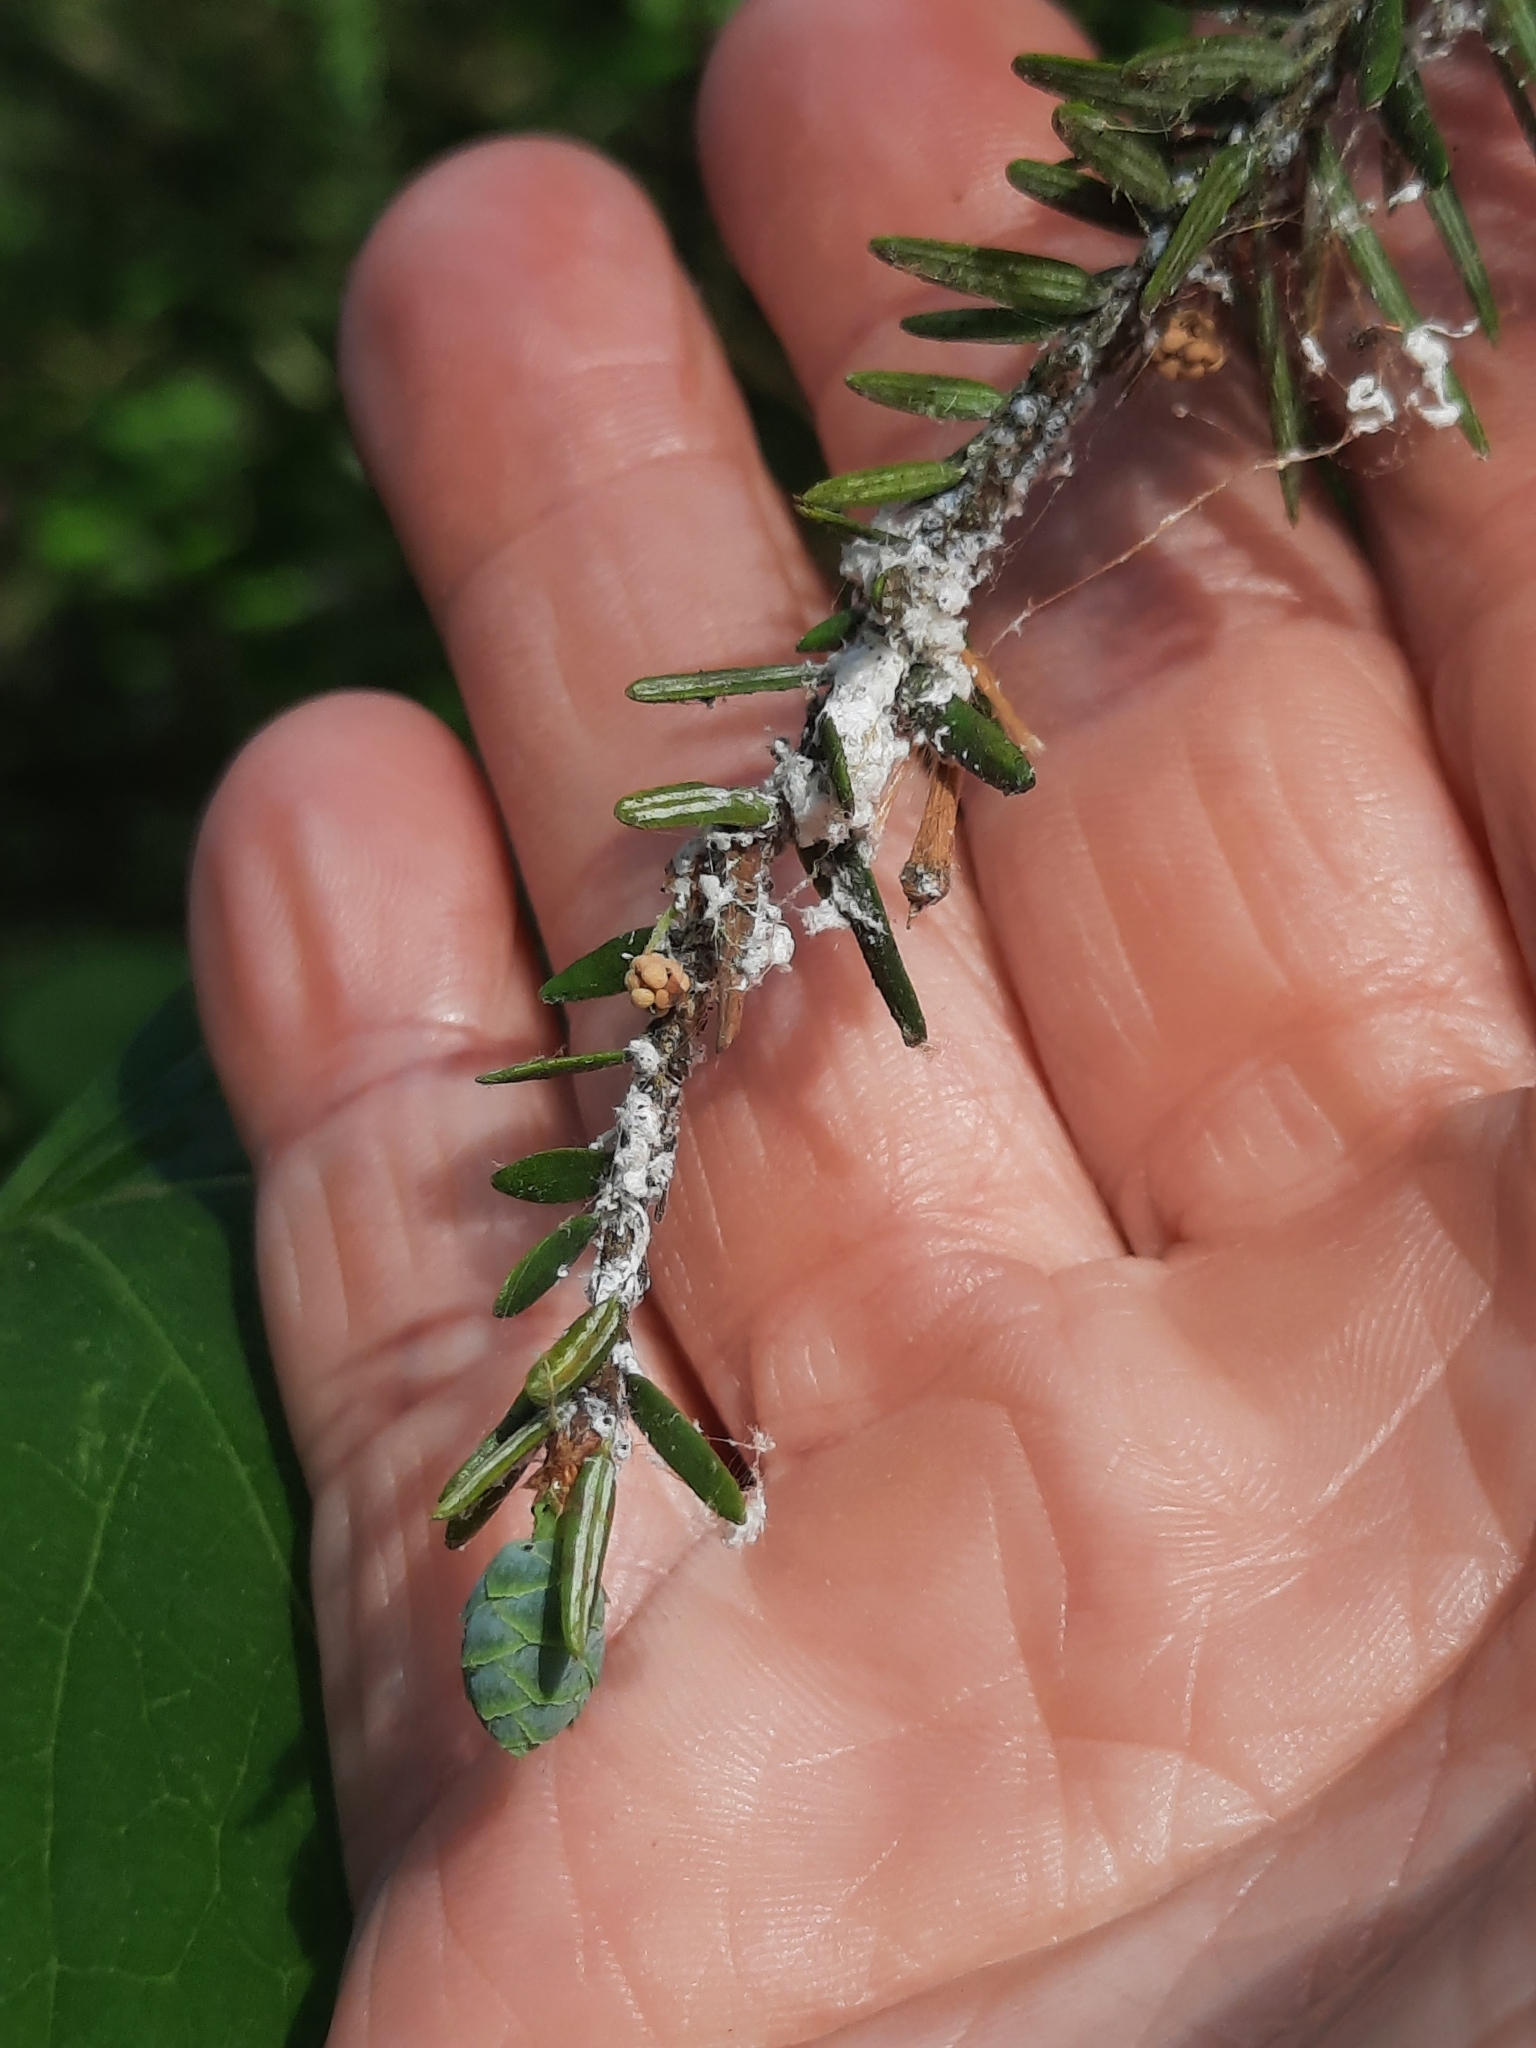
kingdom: Animalia
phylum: Arthropoda
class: Insecta
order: Hemiptera
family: Adelgidae
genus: Adelges
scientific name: Adelges tsugae
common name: Hemlock woolly adelgid
